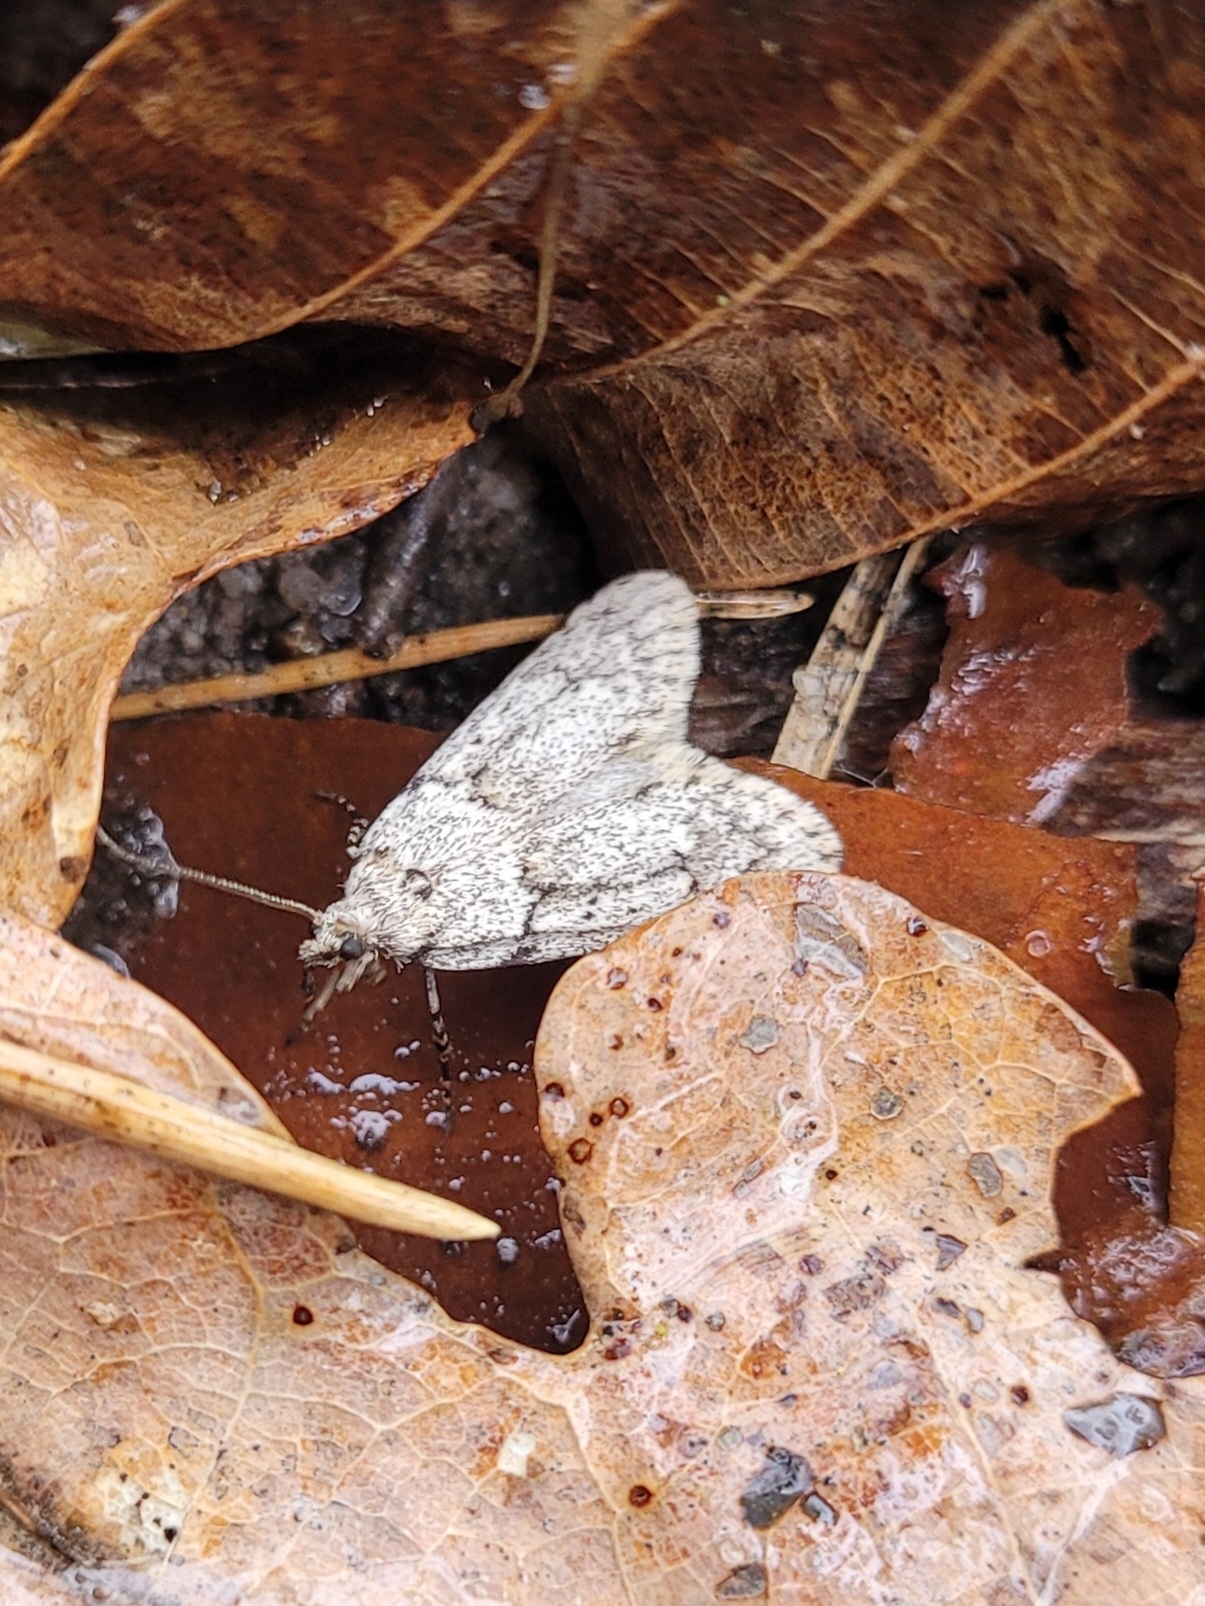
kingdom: Animalia
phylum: Arthropoda
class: Insecta
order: Lepidoptera
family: Lypusidae
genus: Diurnea
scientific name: Diurnea fagella
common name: March tubic
